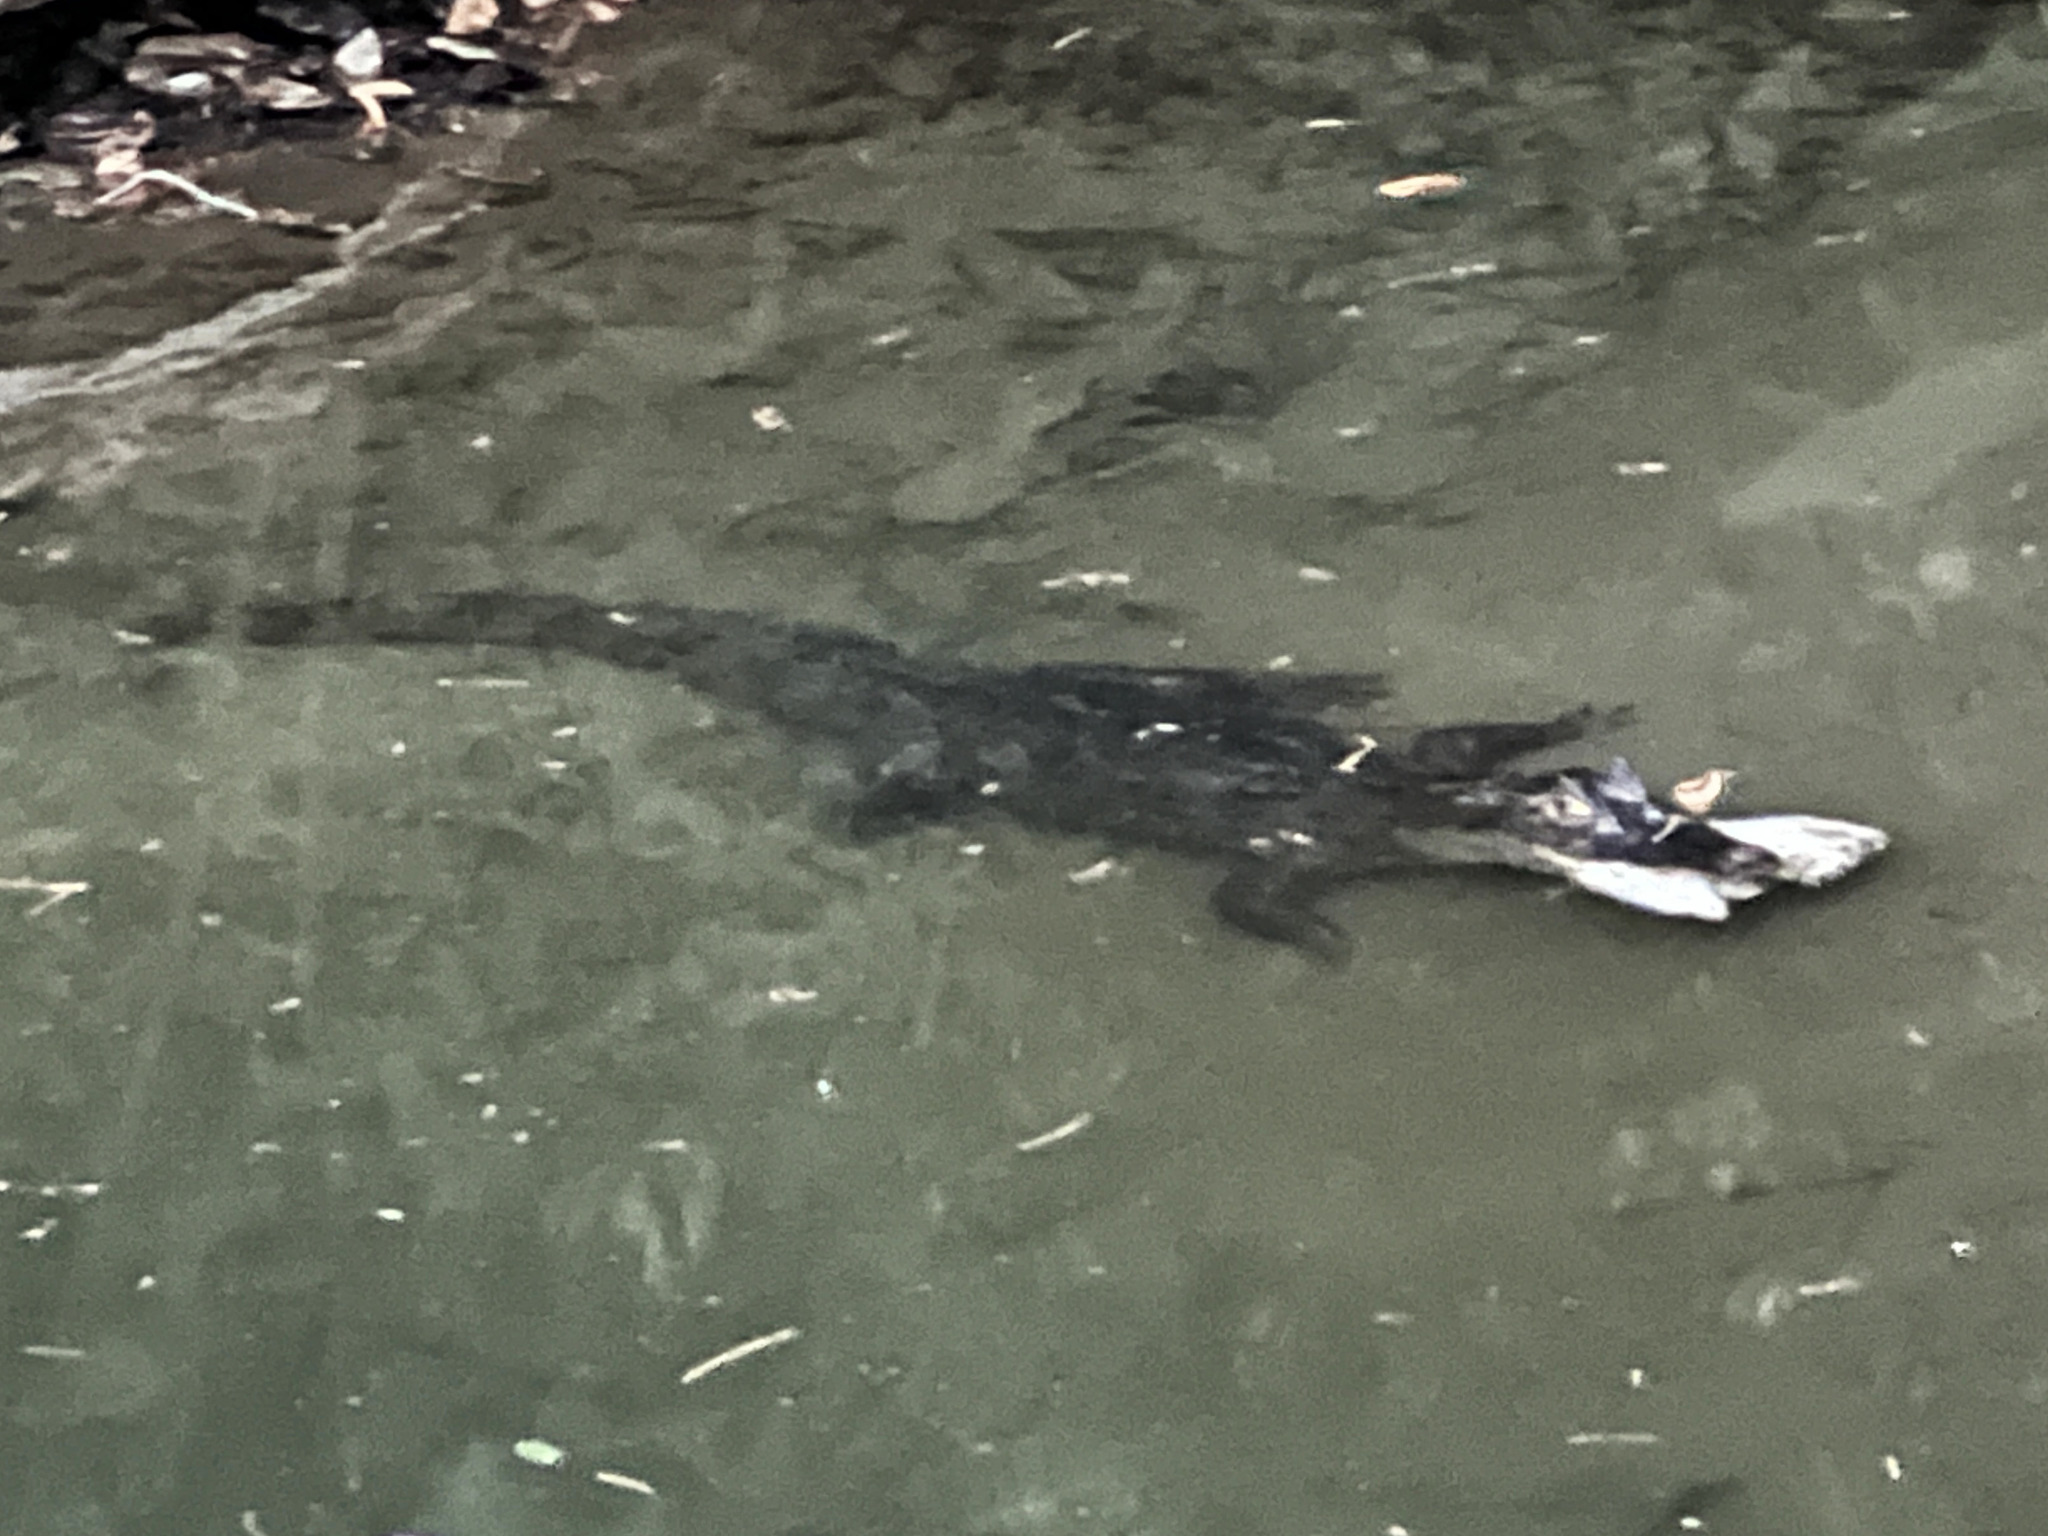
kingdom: Animalia
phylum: Chordata
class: Crocodylia
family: Alligatoridae
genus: Caiman
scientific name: Caiman crocodilus
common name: Common caiman
